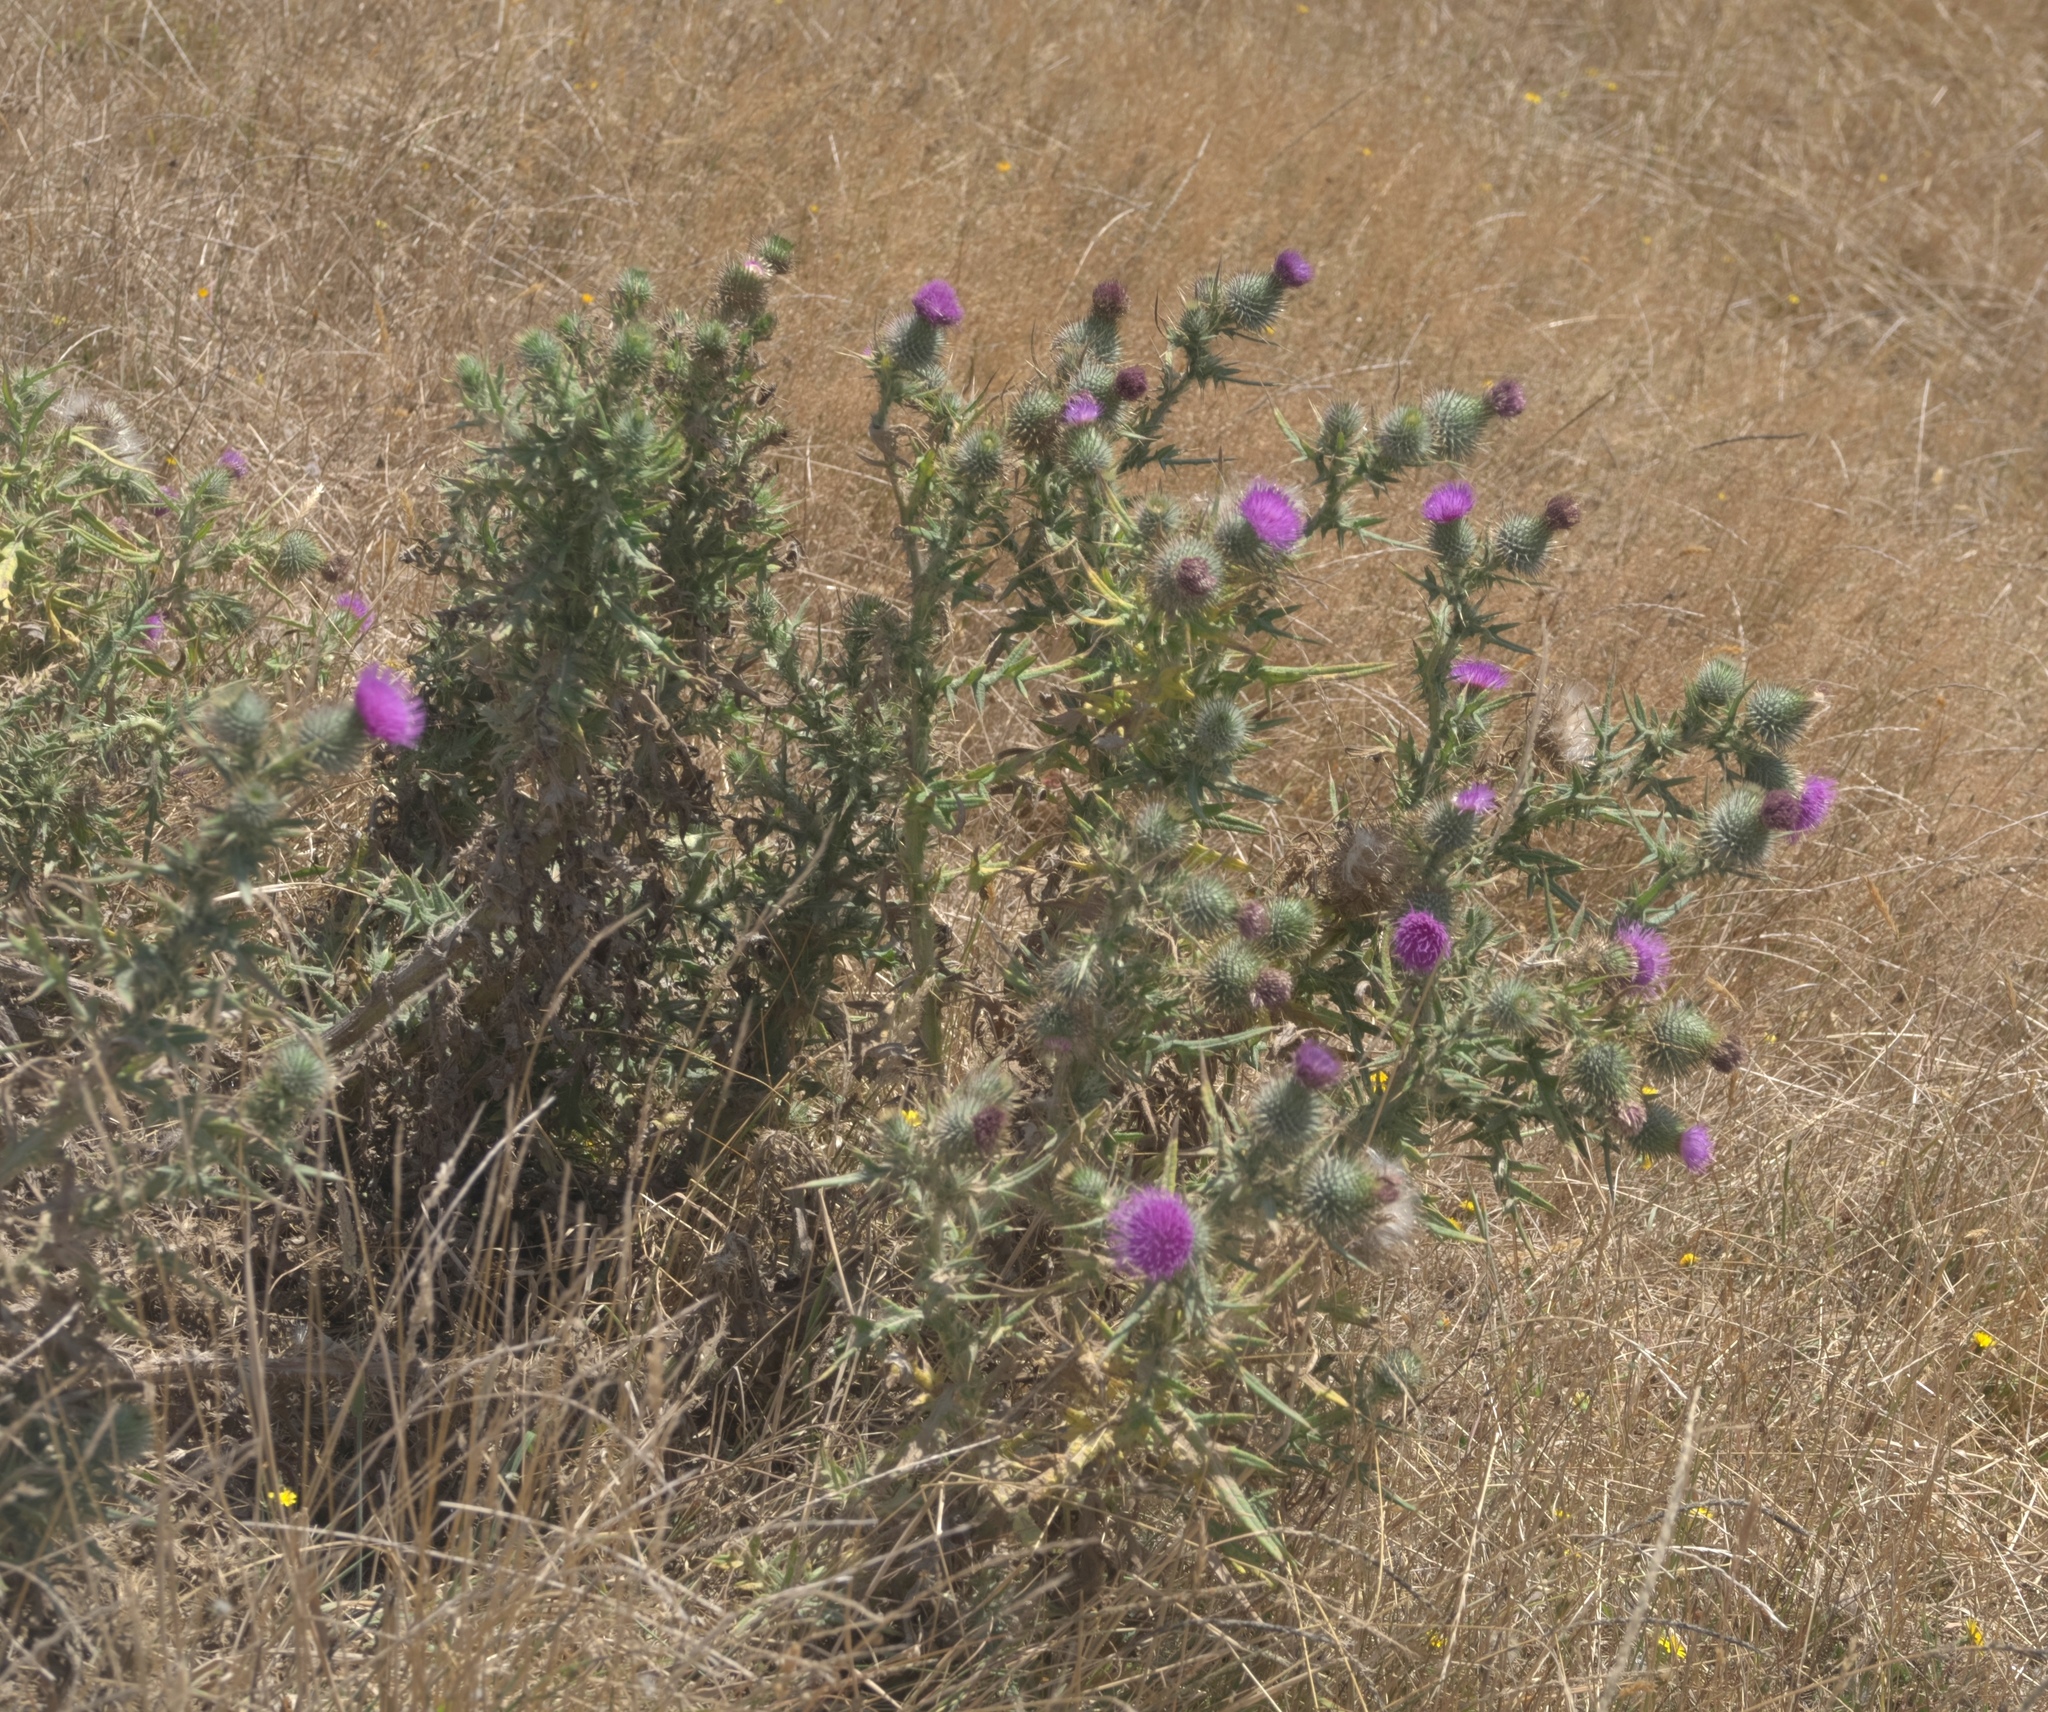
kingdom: Plantae
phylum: Tracheophyta
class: Magnoliopsida
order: Asterales
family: Asteraceae
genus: Cirsium
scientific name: Cirsium vulgare
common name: Bull thistle
